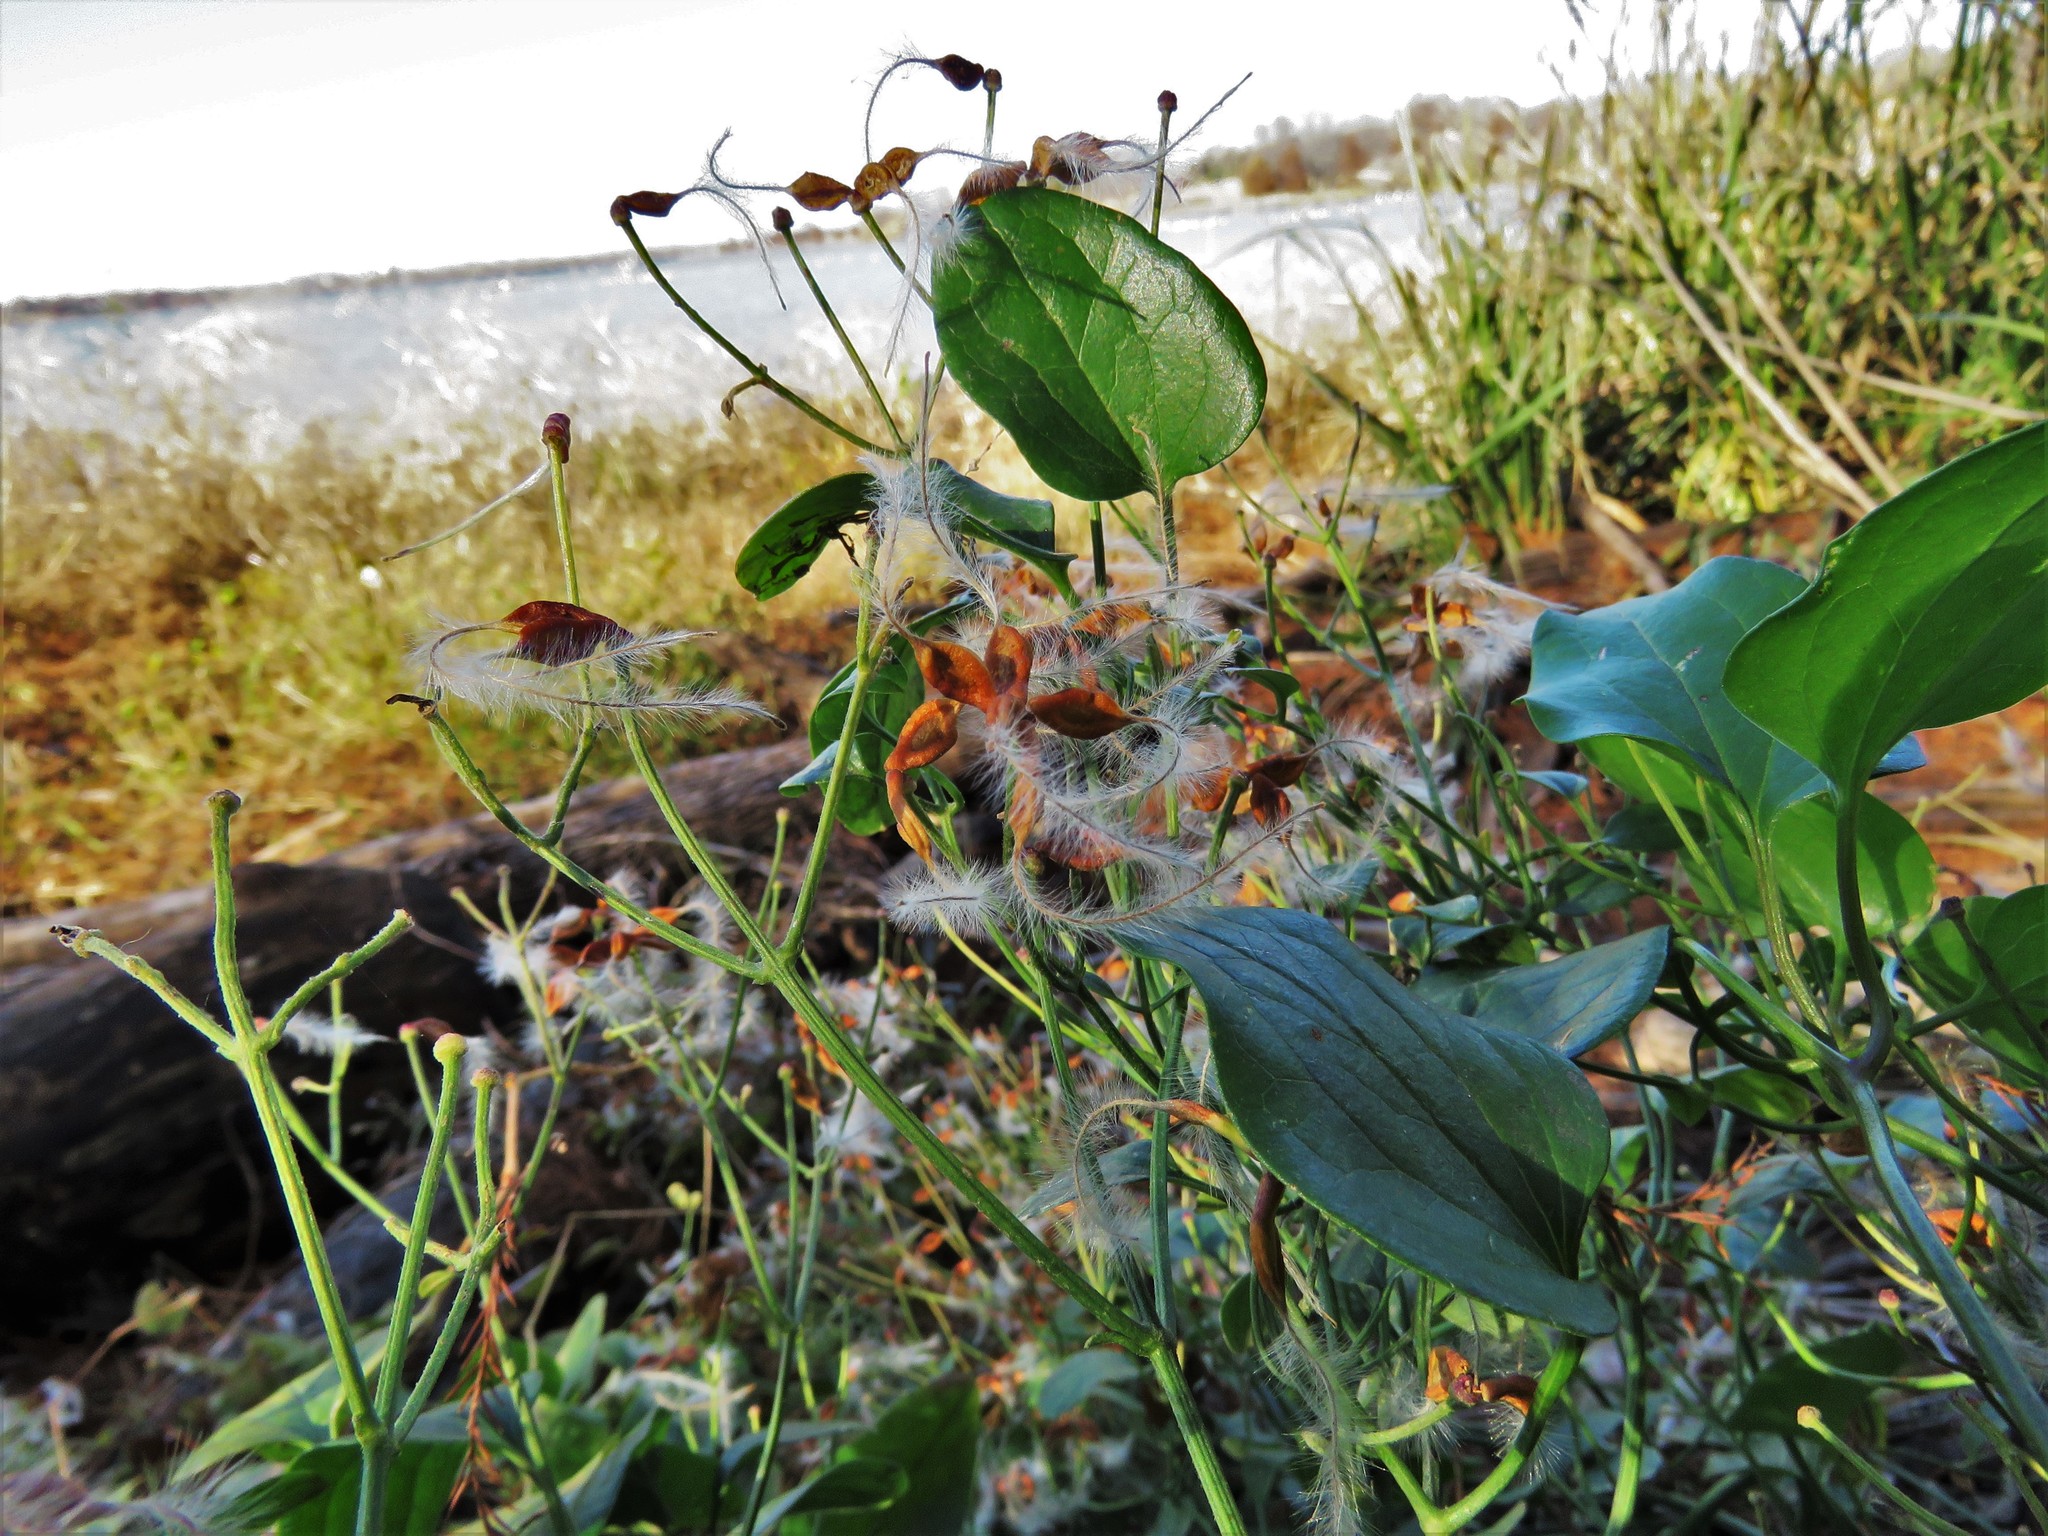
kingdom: Plantae
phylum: Tracheophyta
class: Magnoliopsida
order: Ranunculales
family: Ranunculaceae
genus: Clematis
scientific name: Clematis terniflora
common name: Sweet autumn clematis
